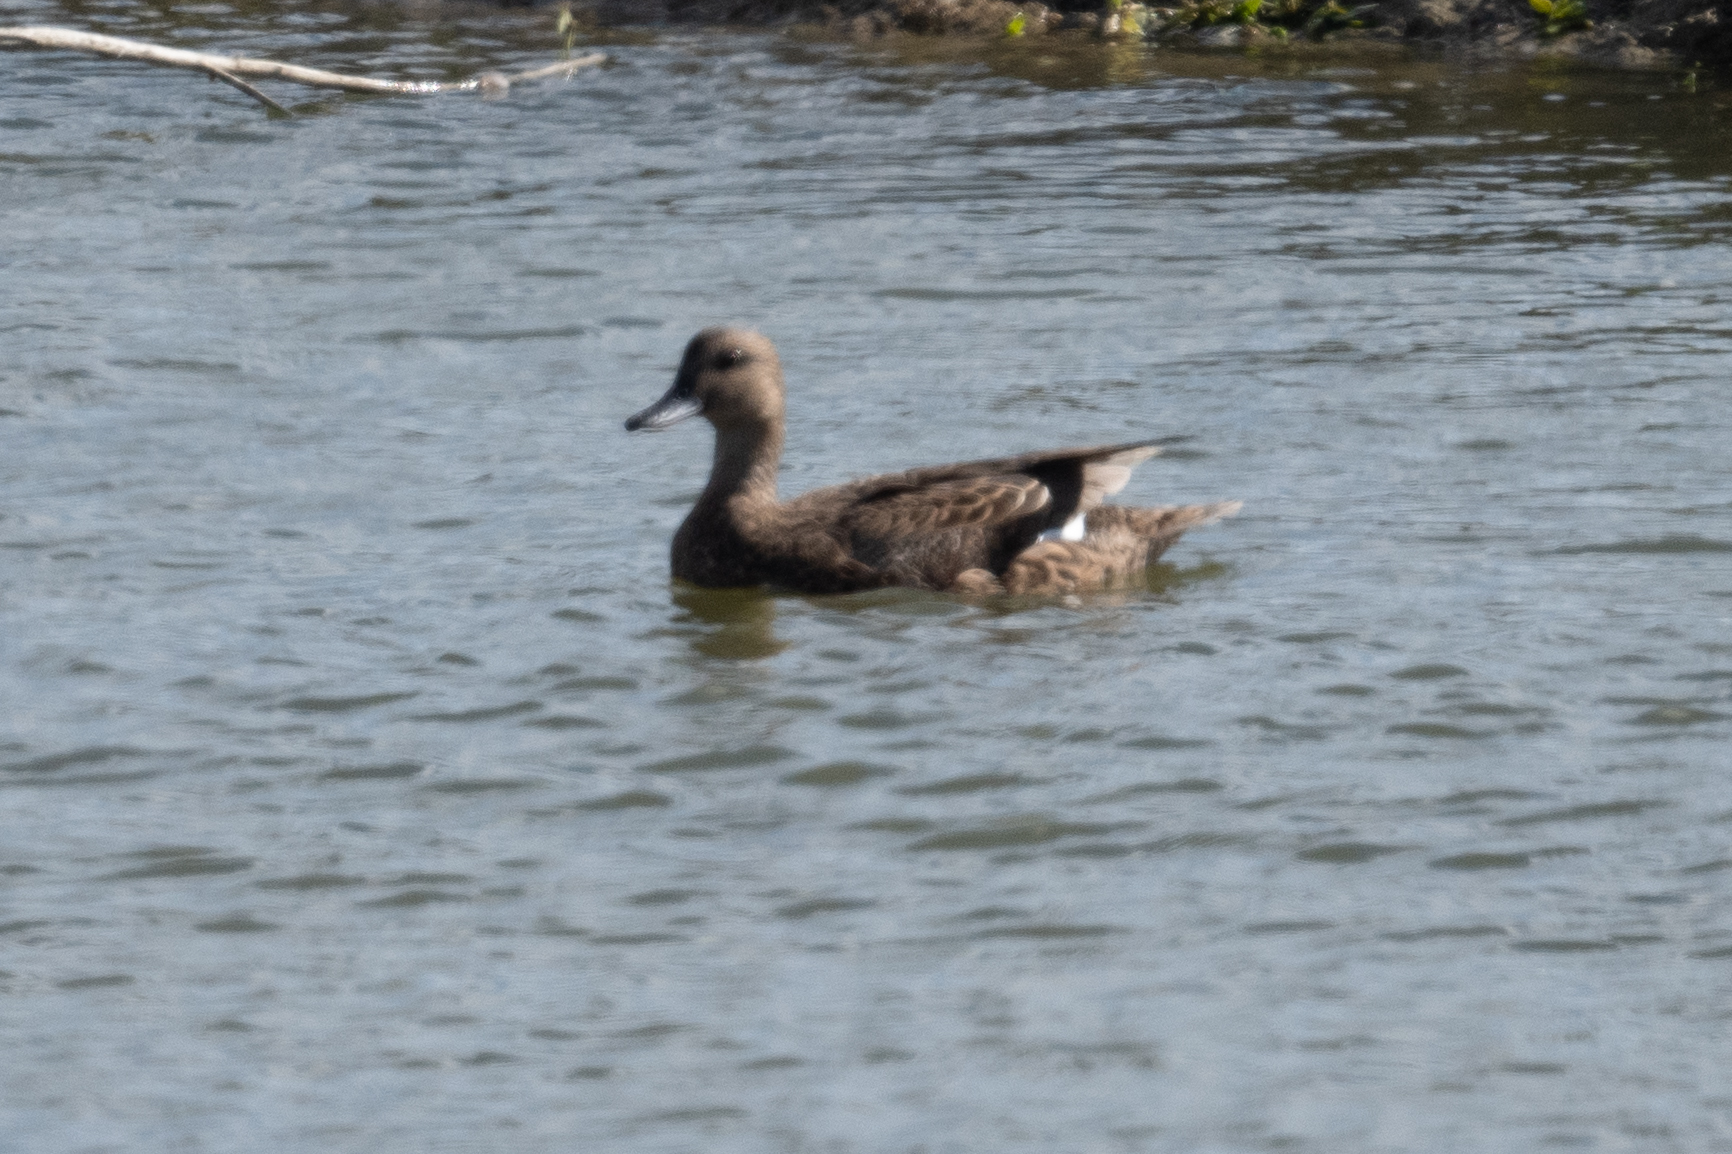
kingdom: Animalia
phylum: Chordata
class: Aves
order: Anseriformes
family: Anatidae
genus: Mareca
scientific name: Mareca strepera
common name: Gadwall
